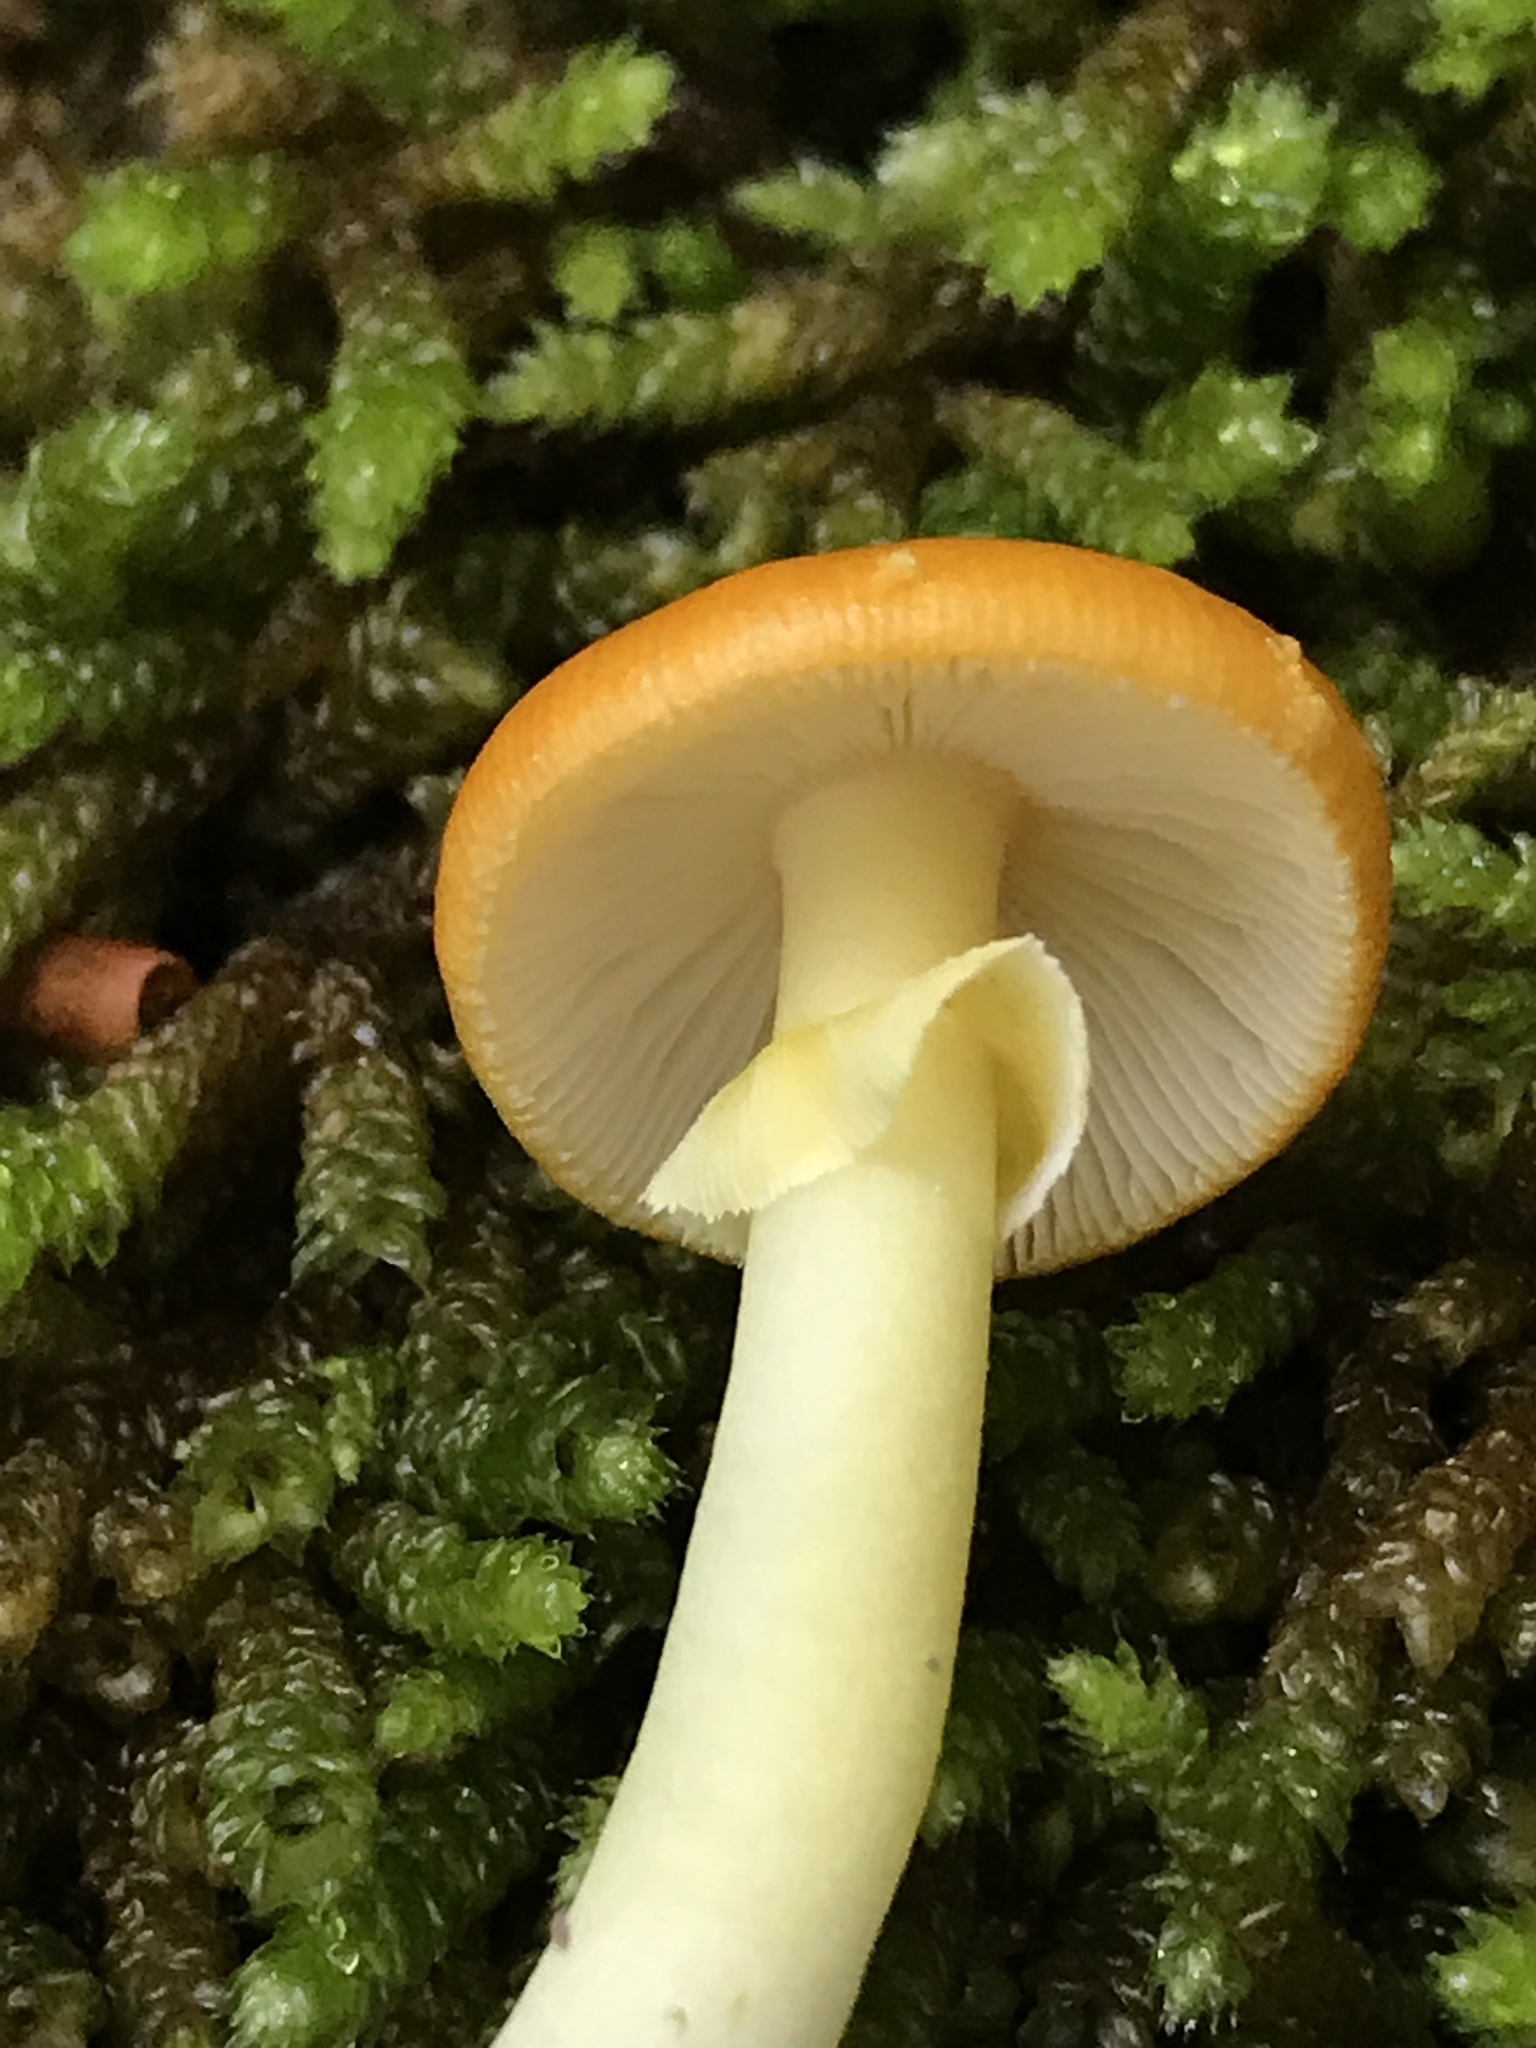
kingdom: Fungi
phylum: Basidiomycota
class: Agaricomycetes
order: Agaricales
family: Amanitaceae
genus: Amanita
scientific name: Amanita flavoconia
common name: Yellow patches
